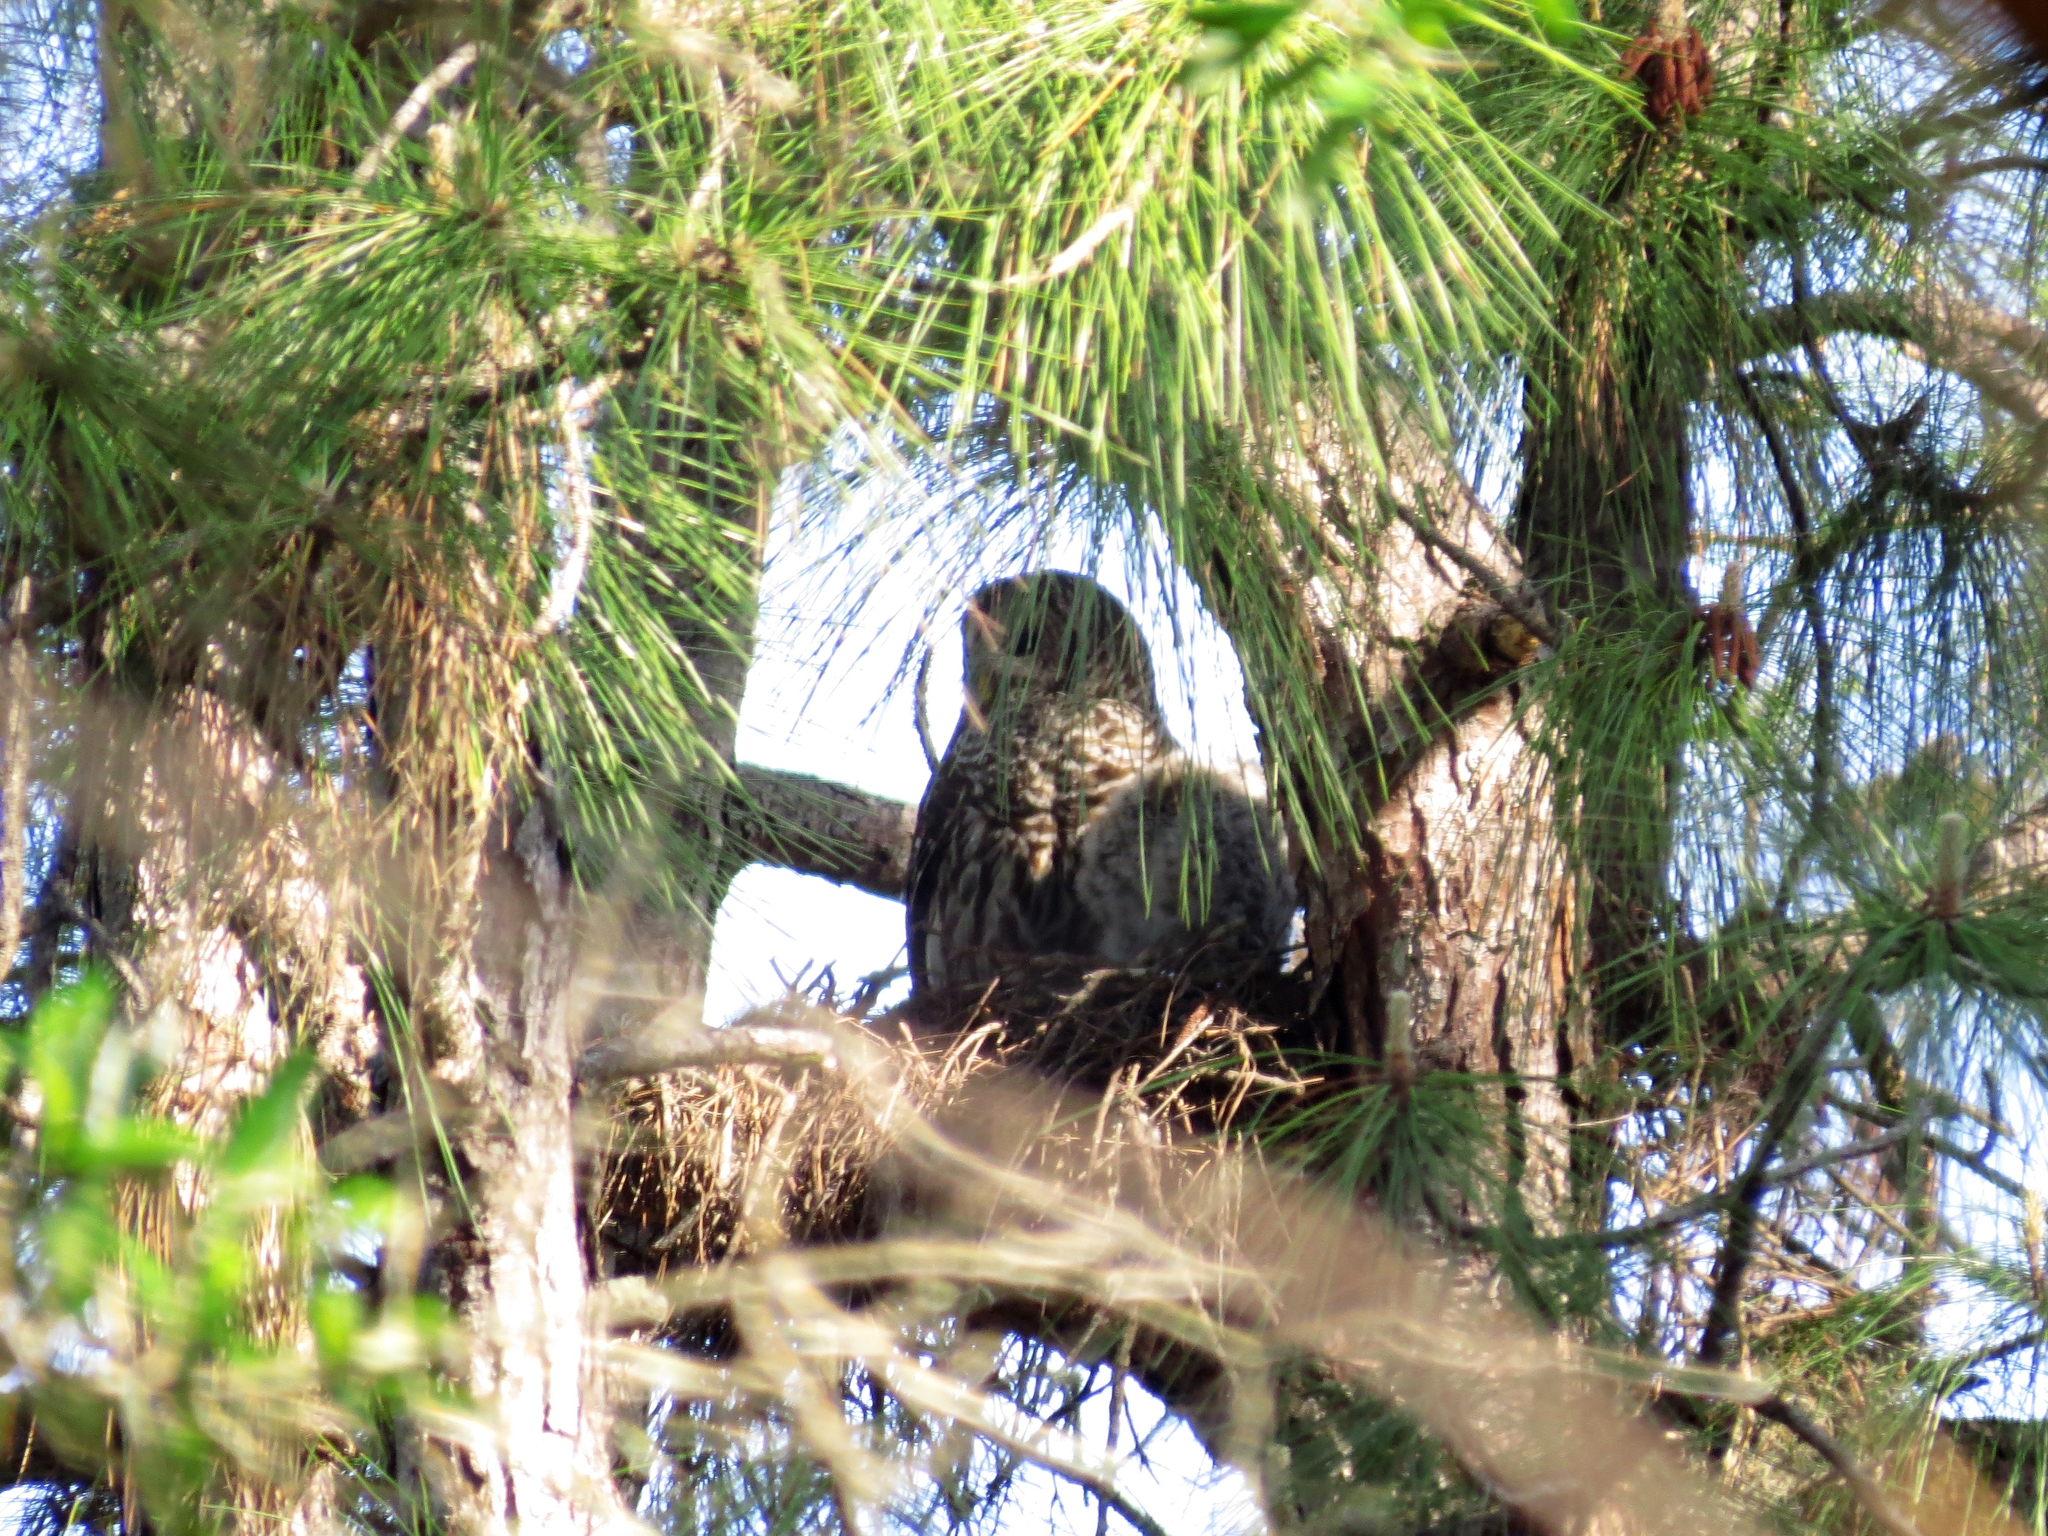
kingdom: Animalia
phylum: Chordata
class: Aves
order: Strigiformes
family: Strigidae
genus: Strix
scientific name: Strix varia
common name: Barred owl
